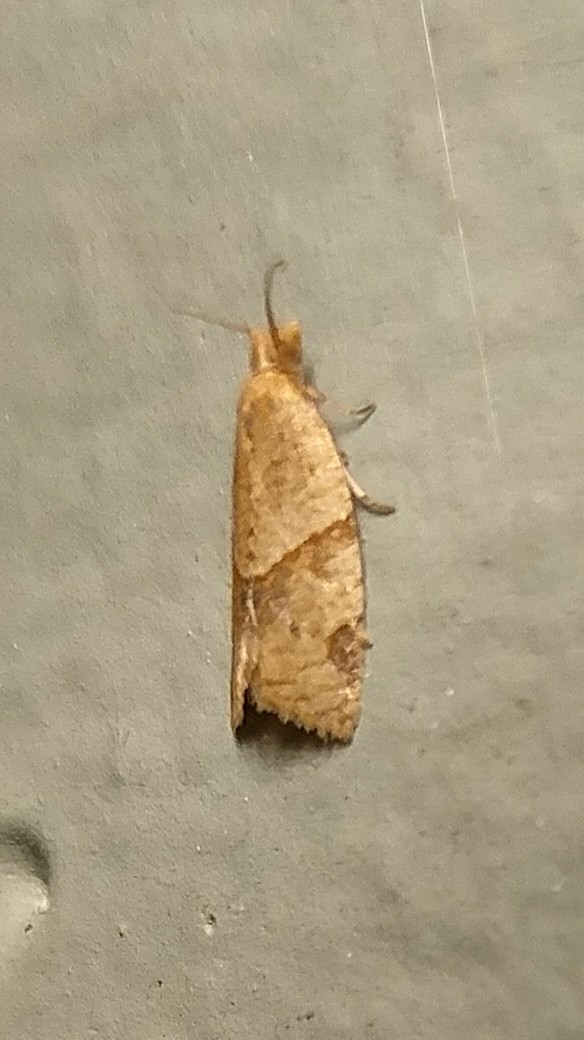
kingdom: Animalia
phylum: Arthropoda
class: Insecta
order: Lepidoptera
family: Tortricidae
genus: Clepsis
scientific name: Clepsis peritana
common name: Garden tortrix
